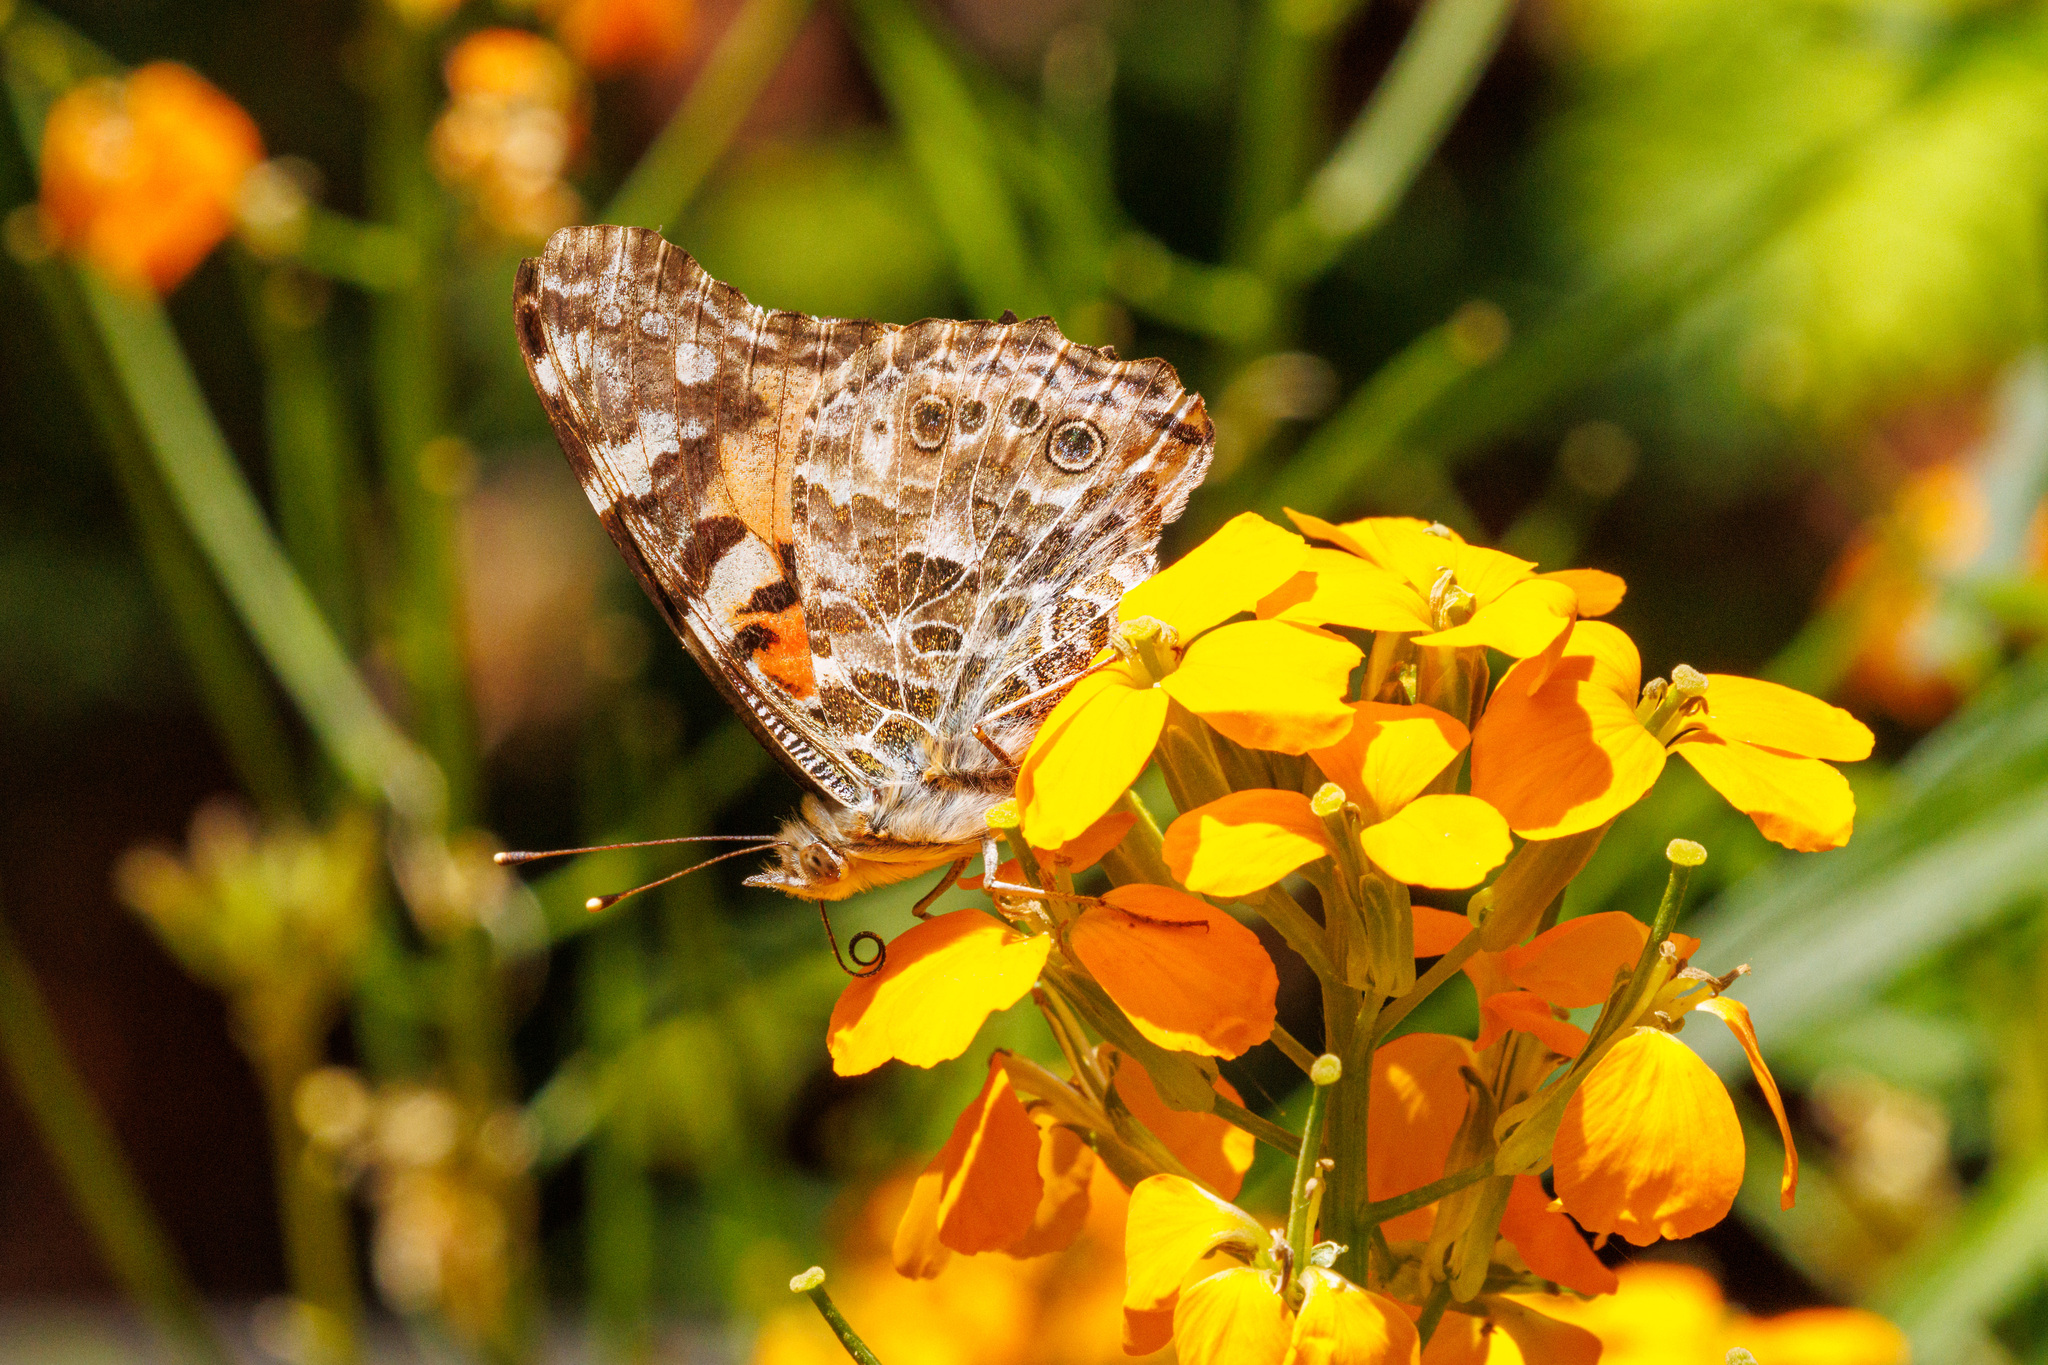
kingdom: Animalia
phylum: Arthropoda
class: Insecta
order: Lepidoptera
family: Nymphalidae
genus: Vanessa
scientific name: Vanessa cardui
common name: Painted lady
